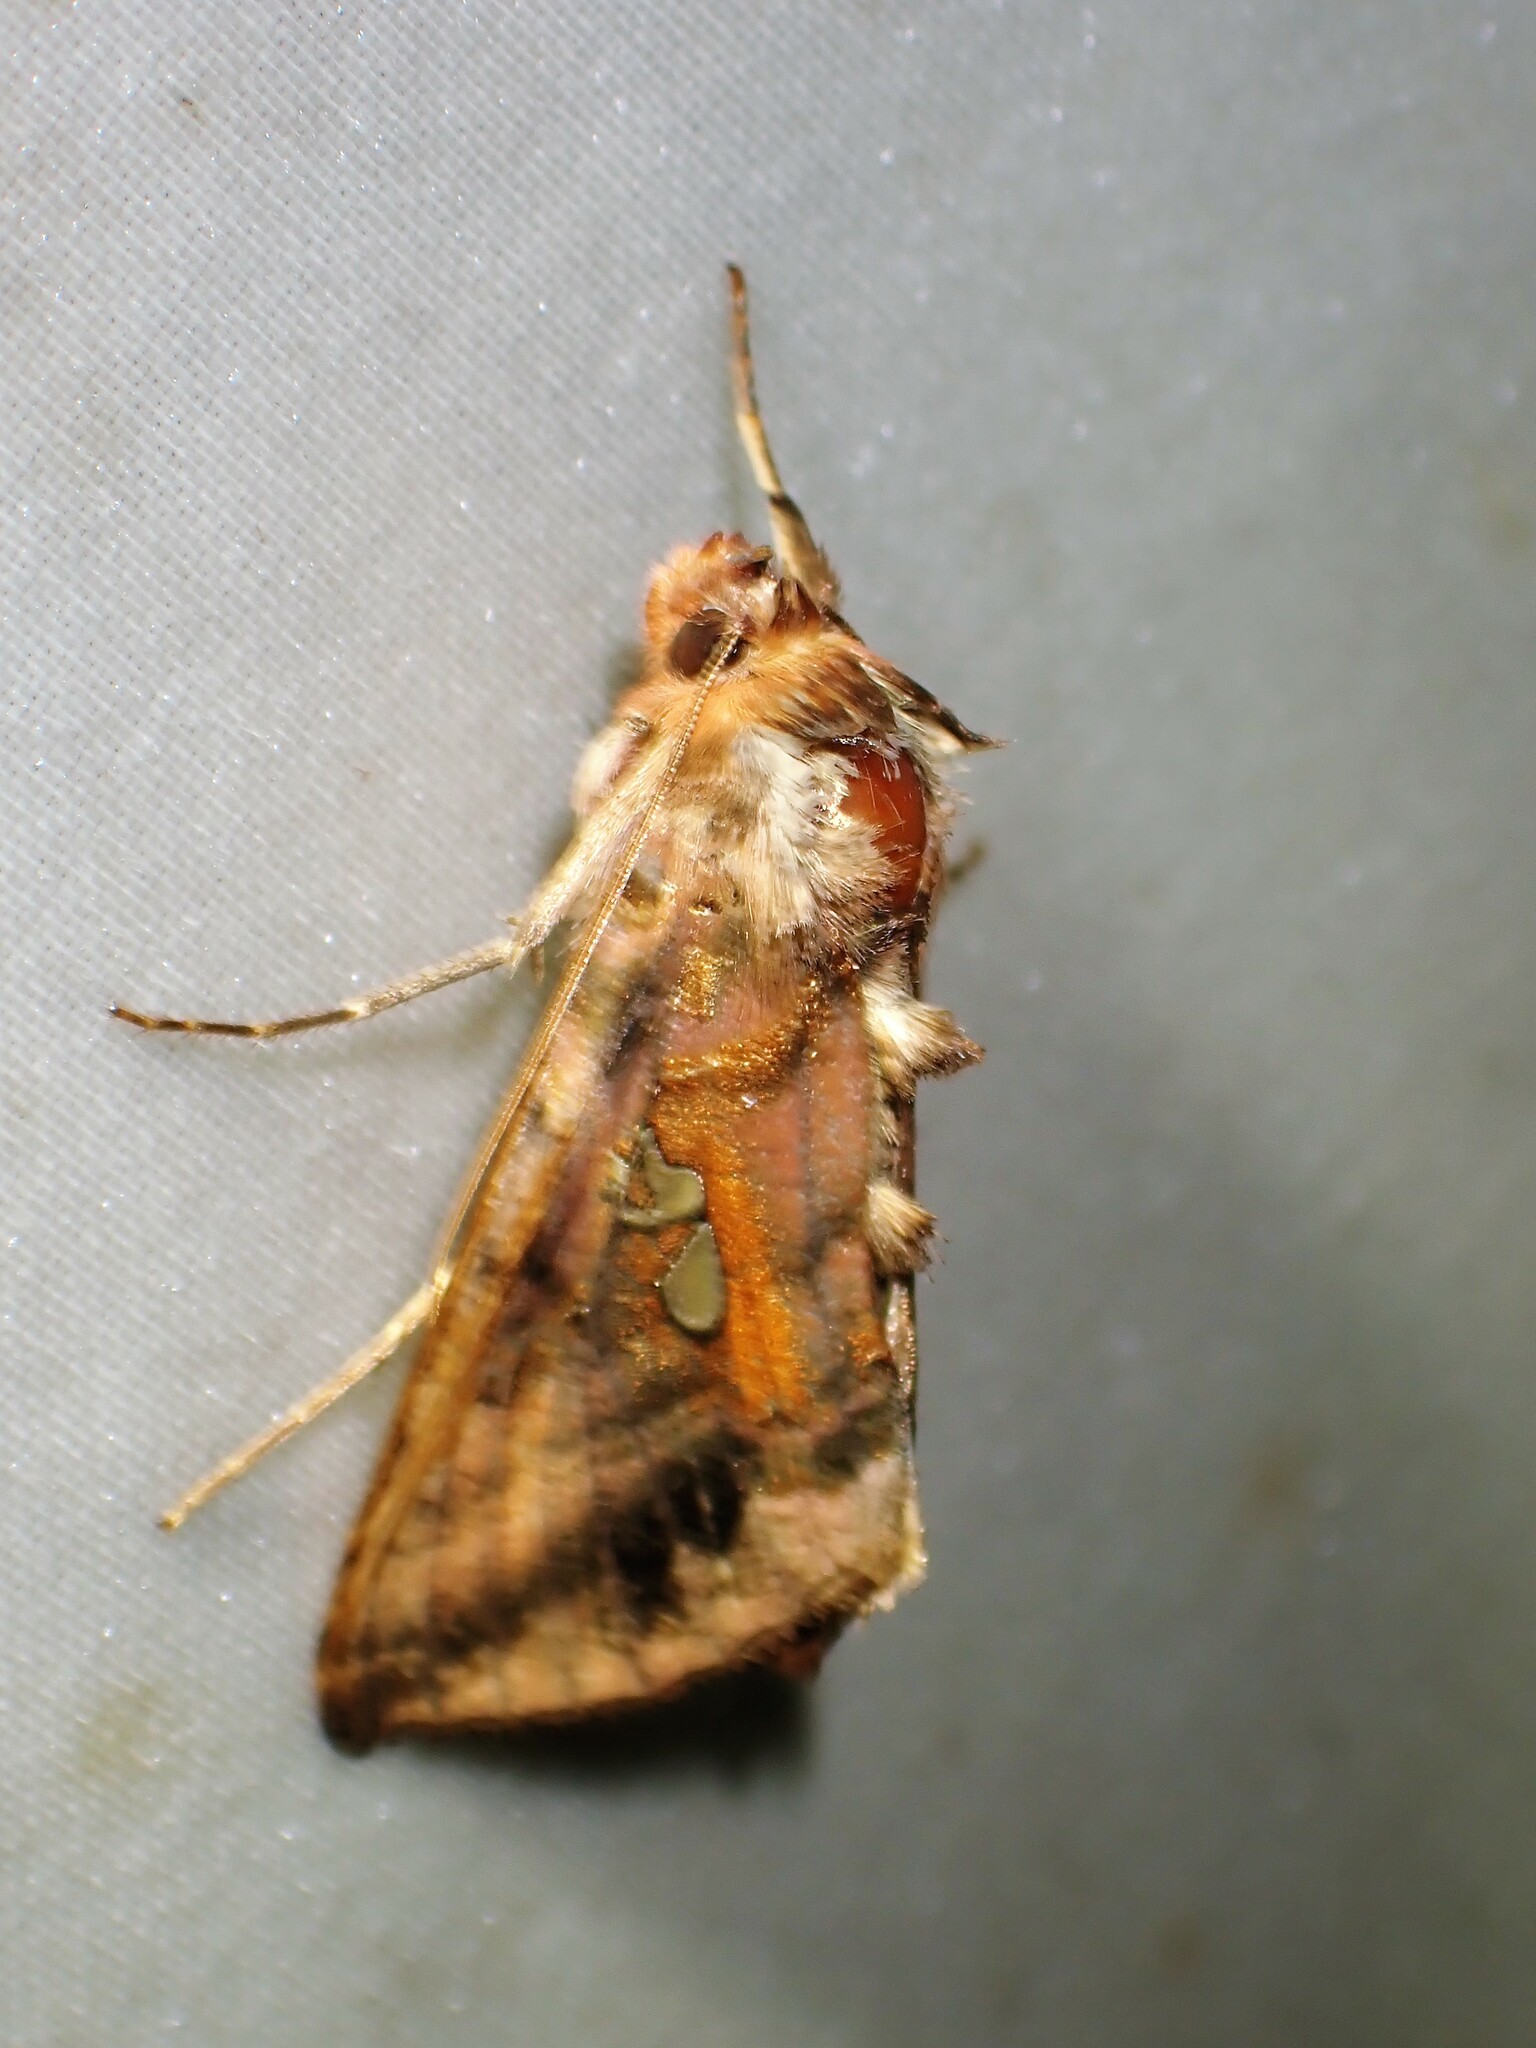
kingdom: Animalia
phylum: Arthropoda
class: Insecta
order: Lepidoptera
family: Noctuidae
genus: Autographa
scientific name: Autographa bimaculata
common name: Double-spotted spangle
